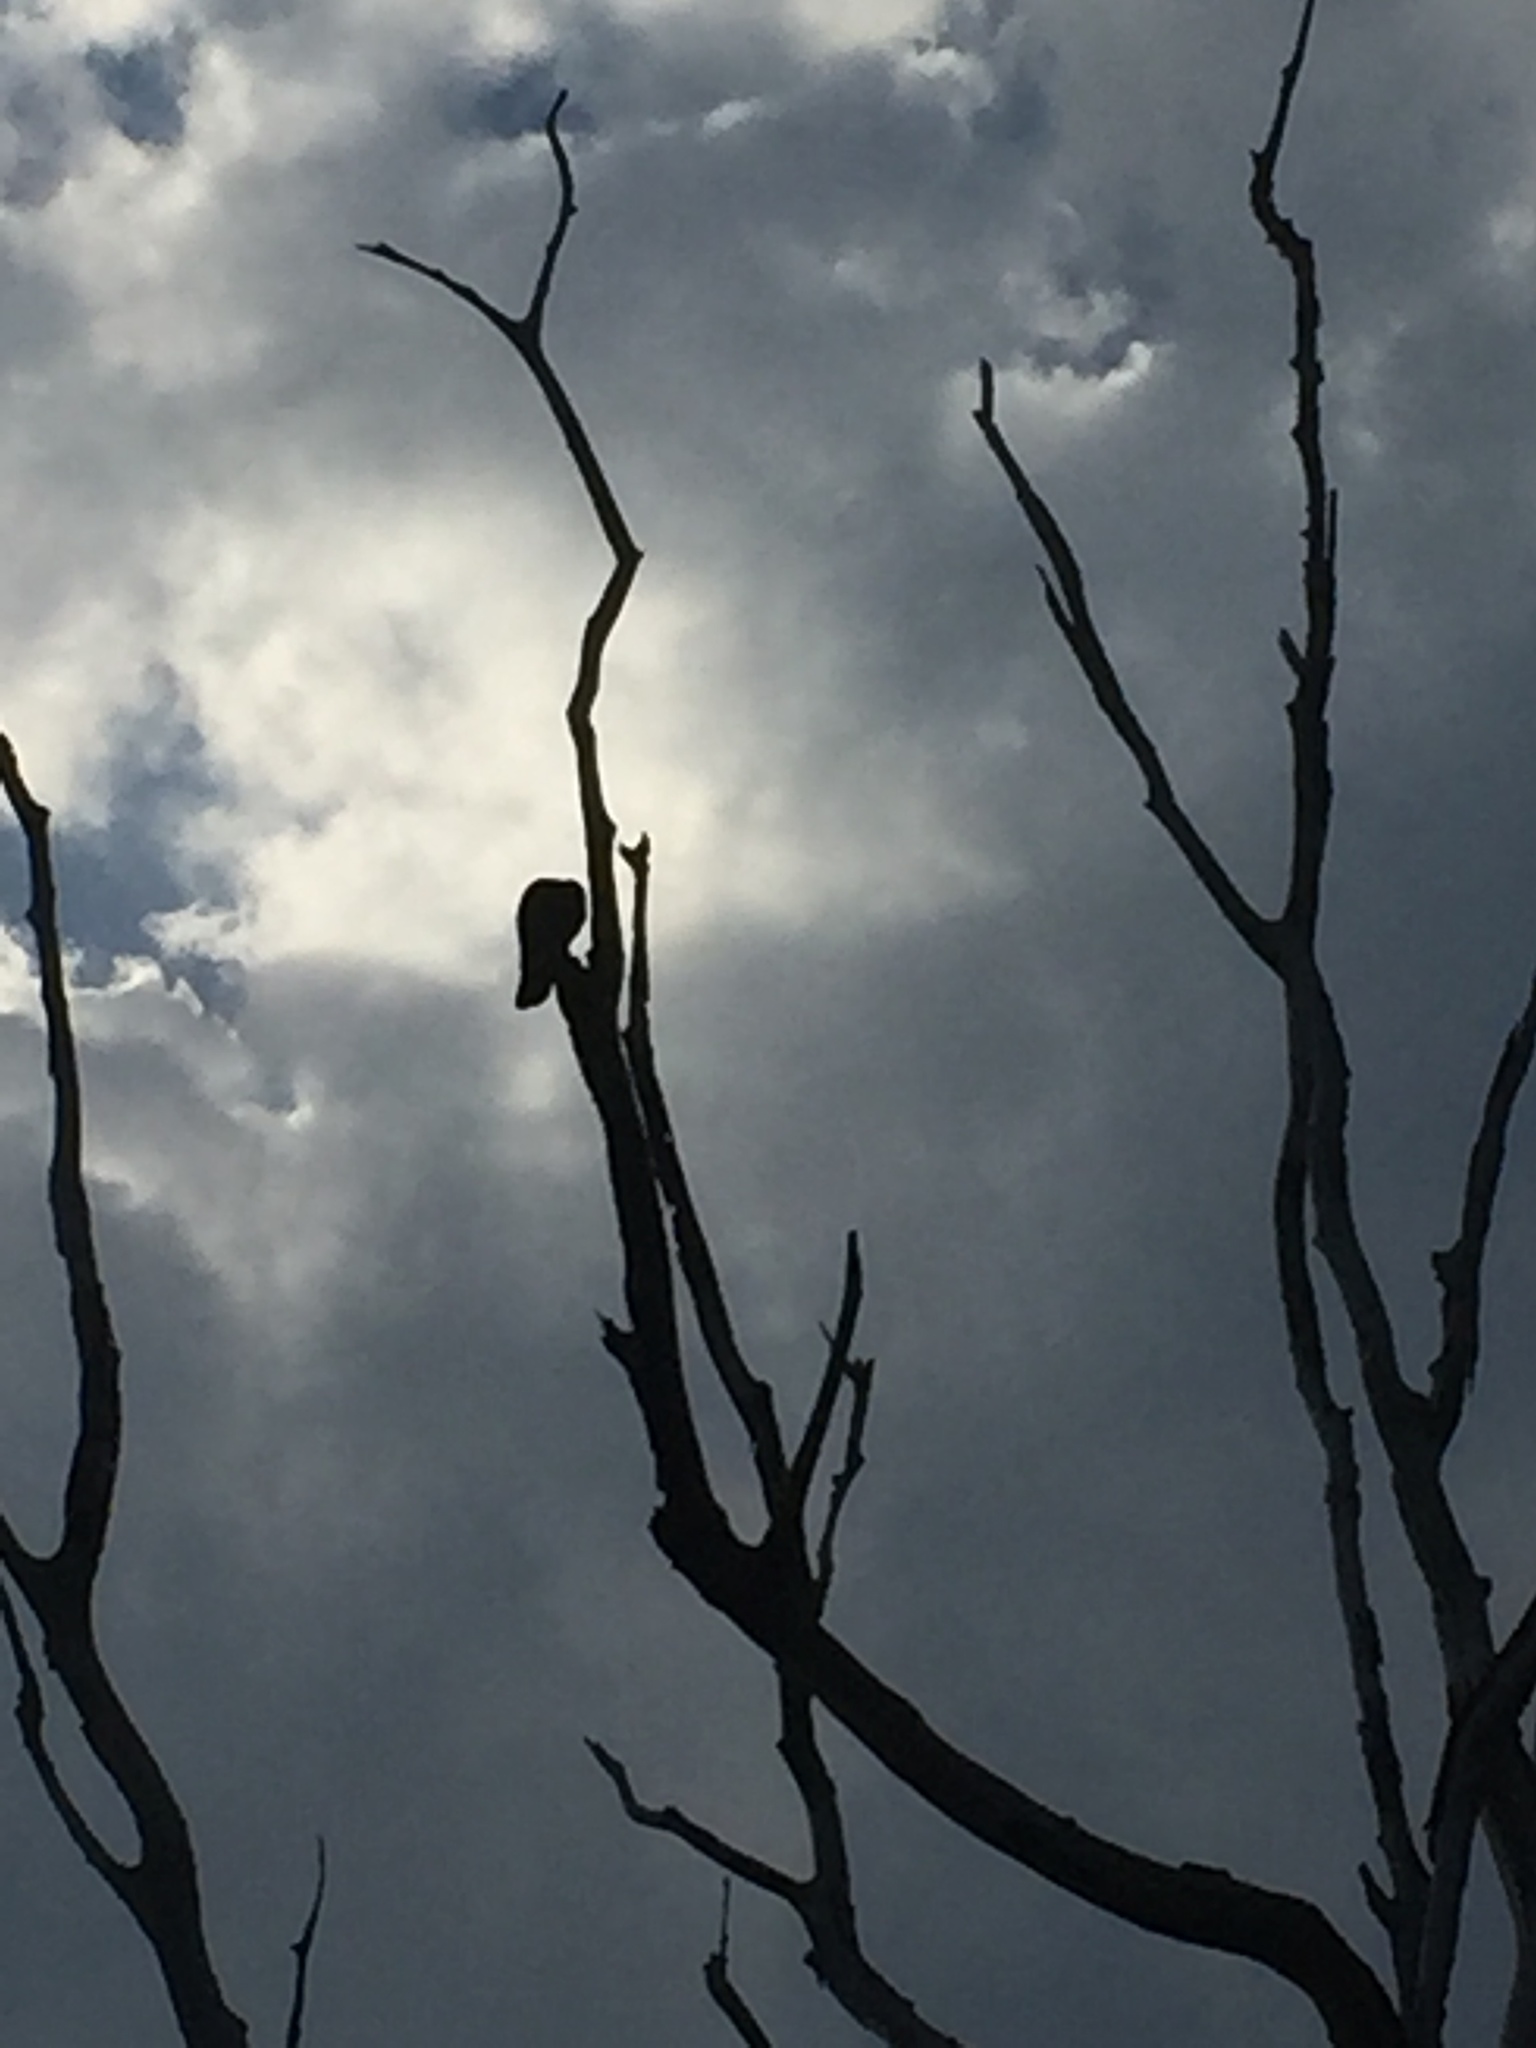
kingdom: Animalia
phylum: Chordata
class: Aves
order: Passeriformes
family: Corvidae
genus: Corvus
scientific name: Corvus macrorhynchos
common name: Large-billed crow
